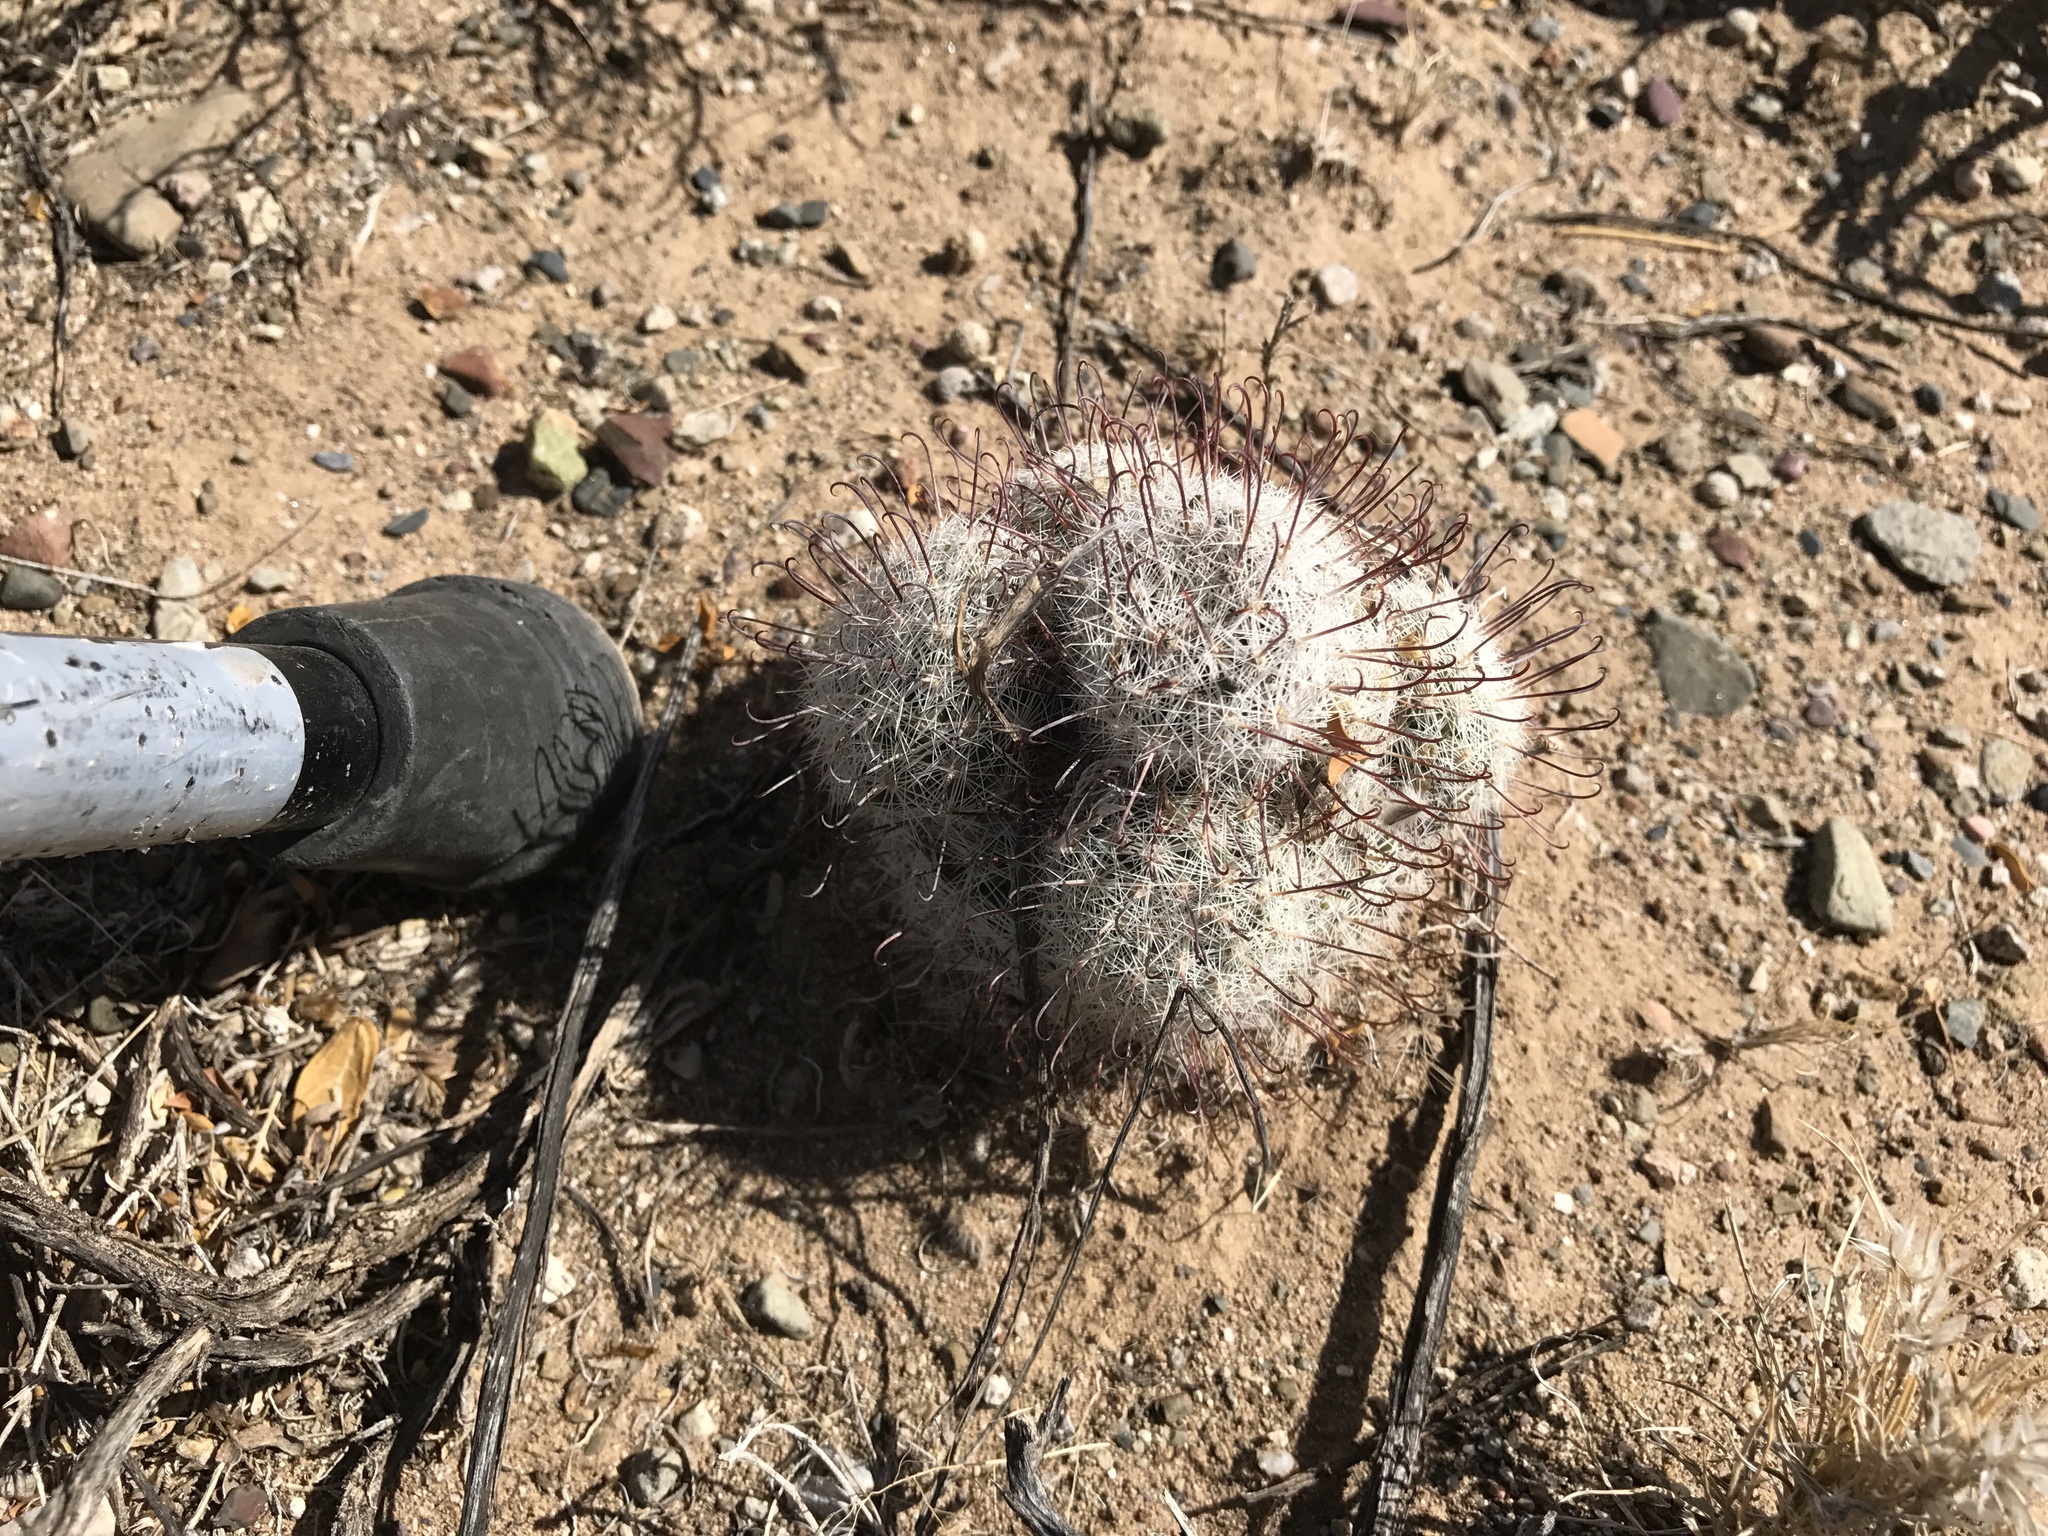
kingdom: Plantae
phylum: Tracheophyta
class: Magnoliopsida
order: Caryophyllales
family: Cactaceae
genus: Cochemiea
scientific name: Cochemiea grahamii
